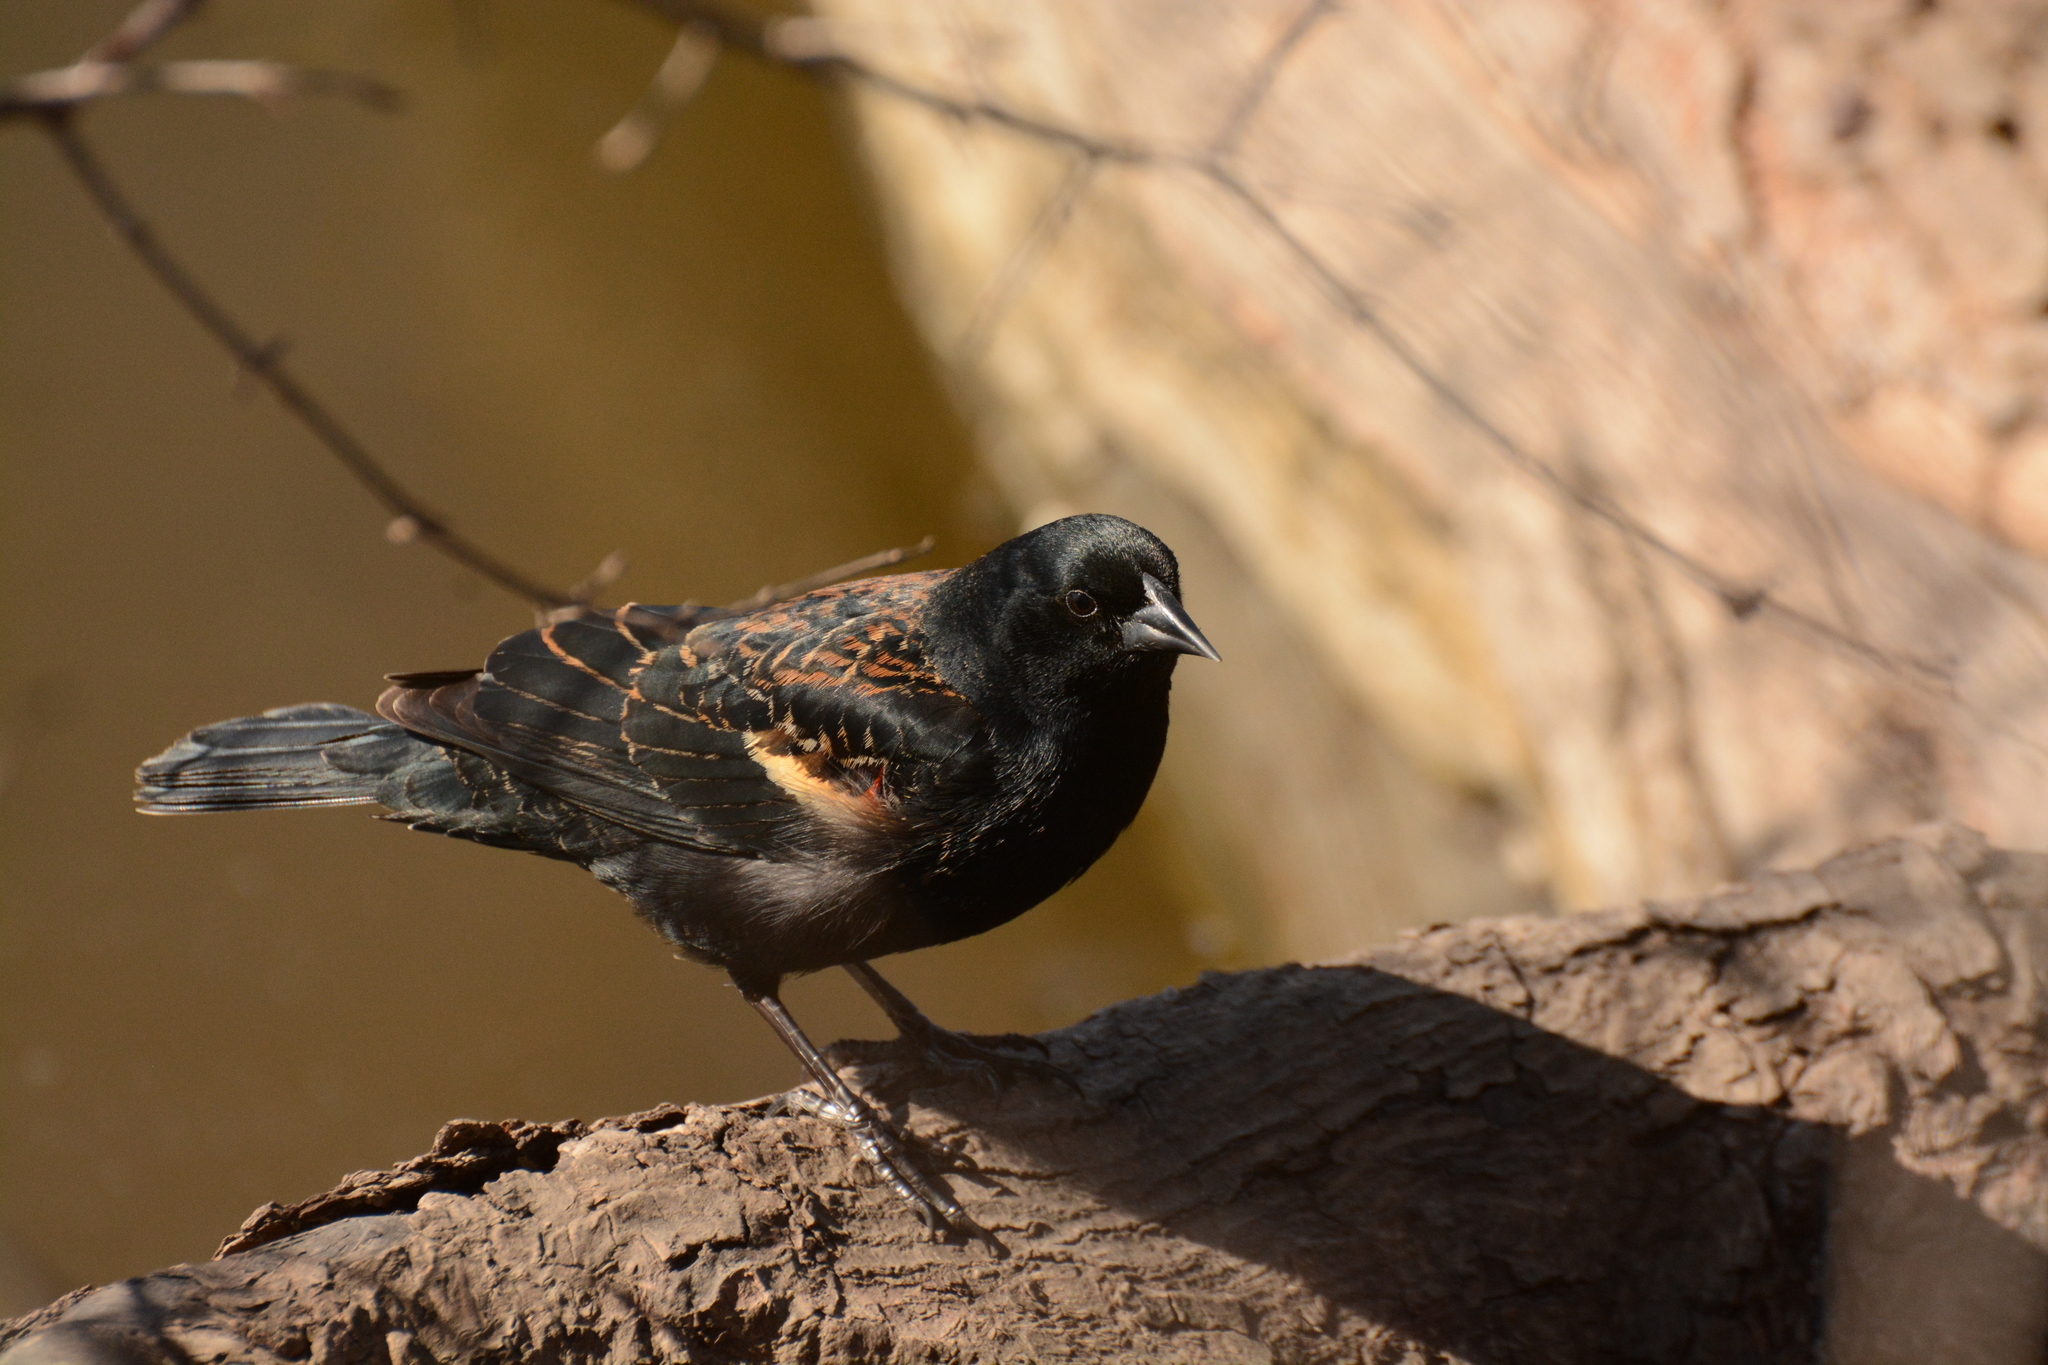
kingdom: Animalia
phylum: Chordata
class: Aves
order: Passeriformes
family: Icteridae
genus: Agelaius
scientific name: Agelaius phoeniceus
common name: Red-winged blackbird
